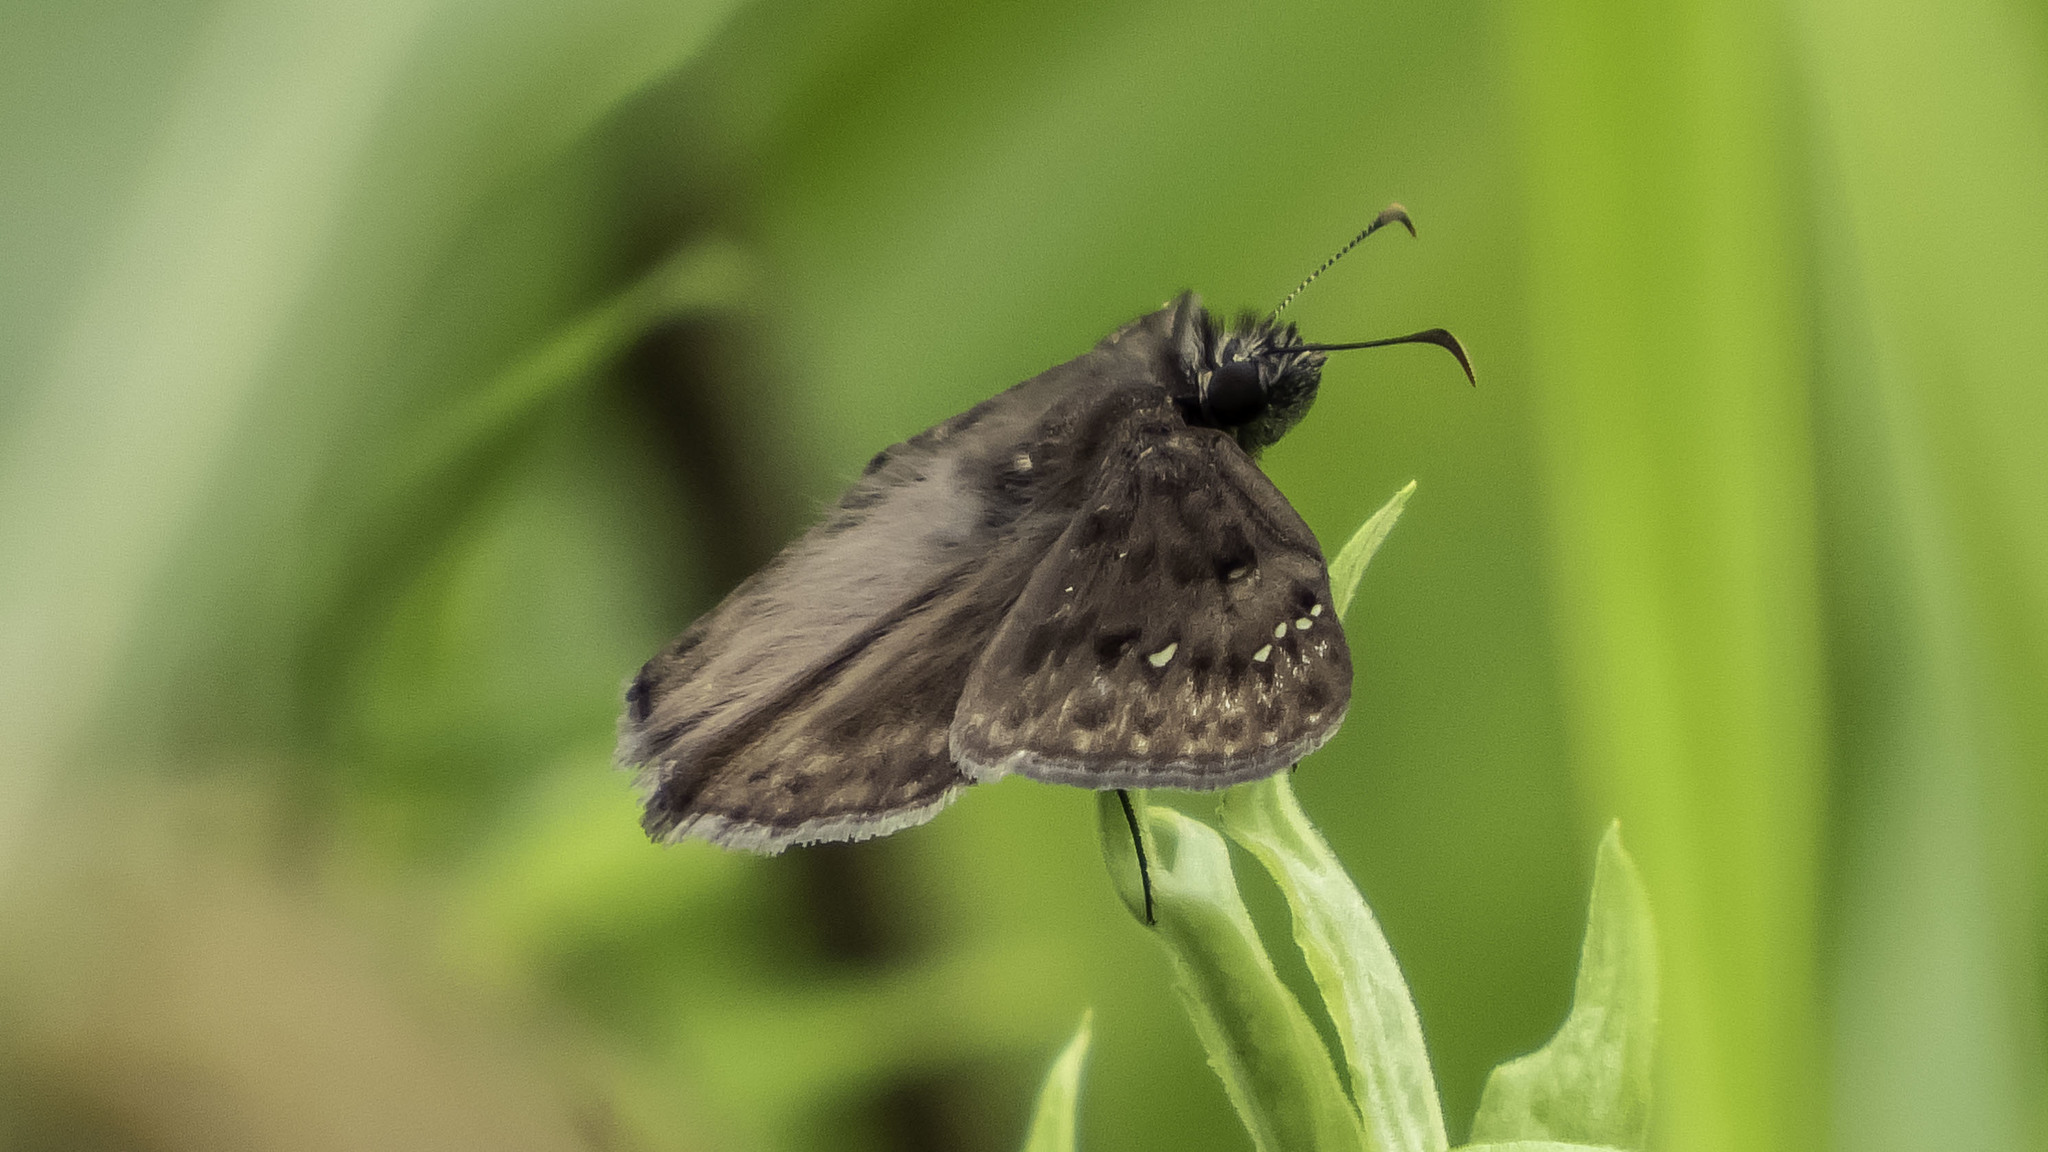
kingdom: Animalia
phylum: Arthropoda
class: Insecta
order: Lepidoptera
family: Hesperiidae
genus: Erynnis
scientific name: Erynnis horatius
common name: Horace's duskywing
